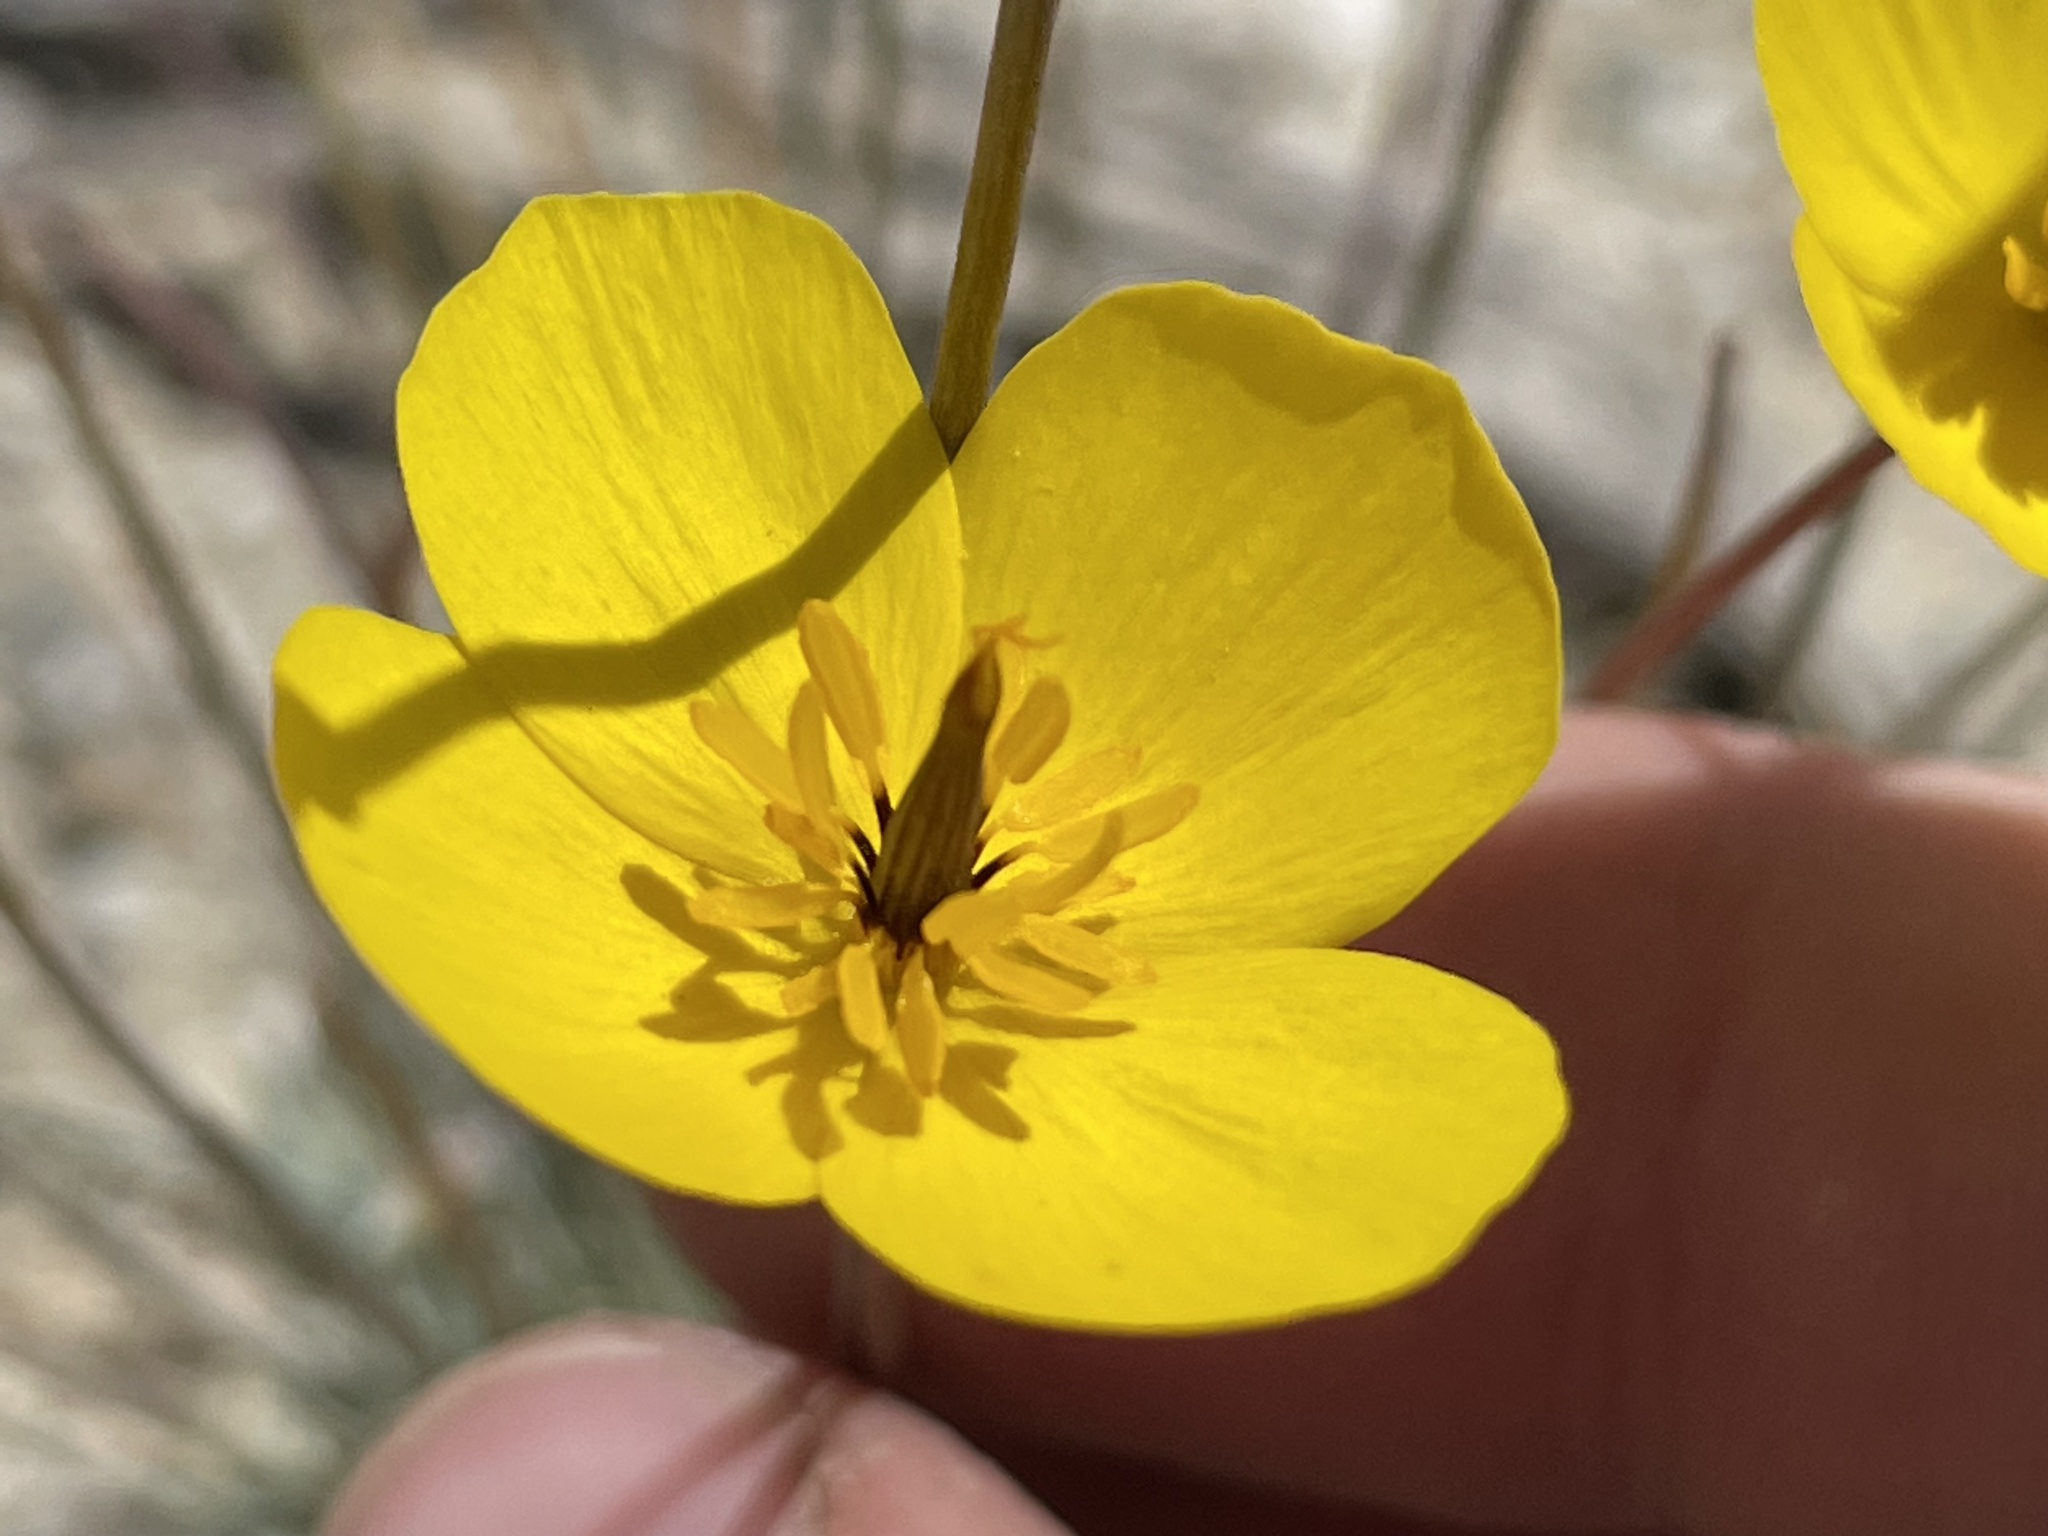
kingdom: Plantae
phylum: Tracheophyta
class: Magnoliopsida
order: Ranunculales
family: Papaveraceae
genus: Eschscholzia
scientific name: Eschscholzia glyptosperma
